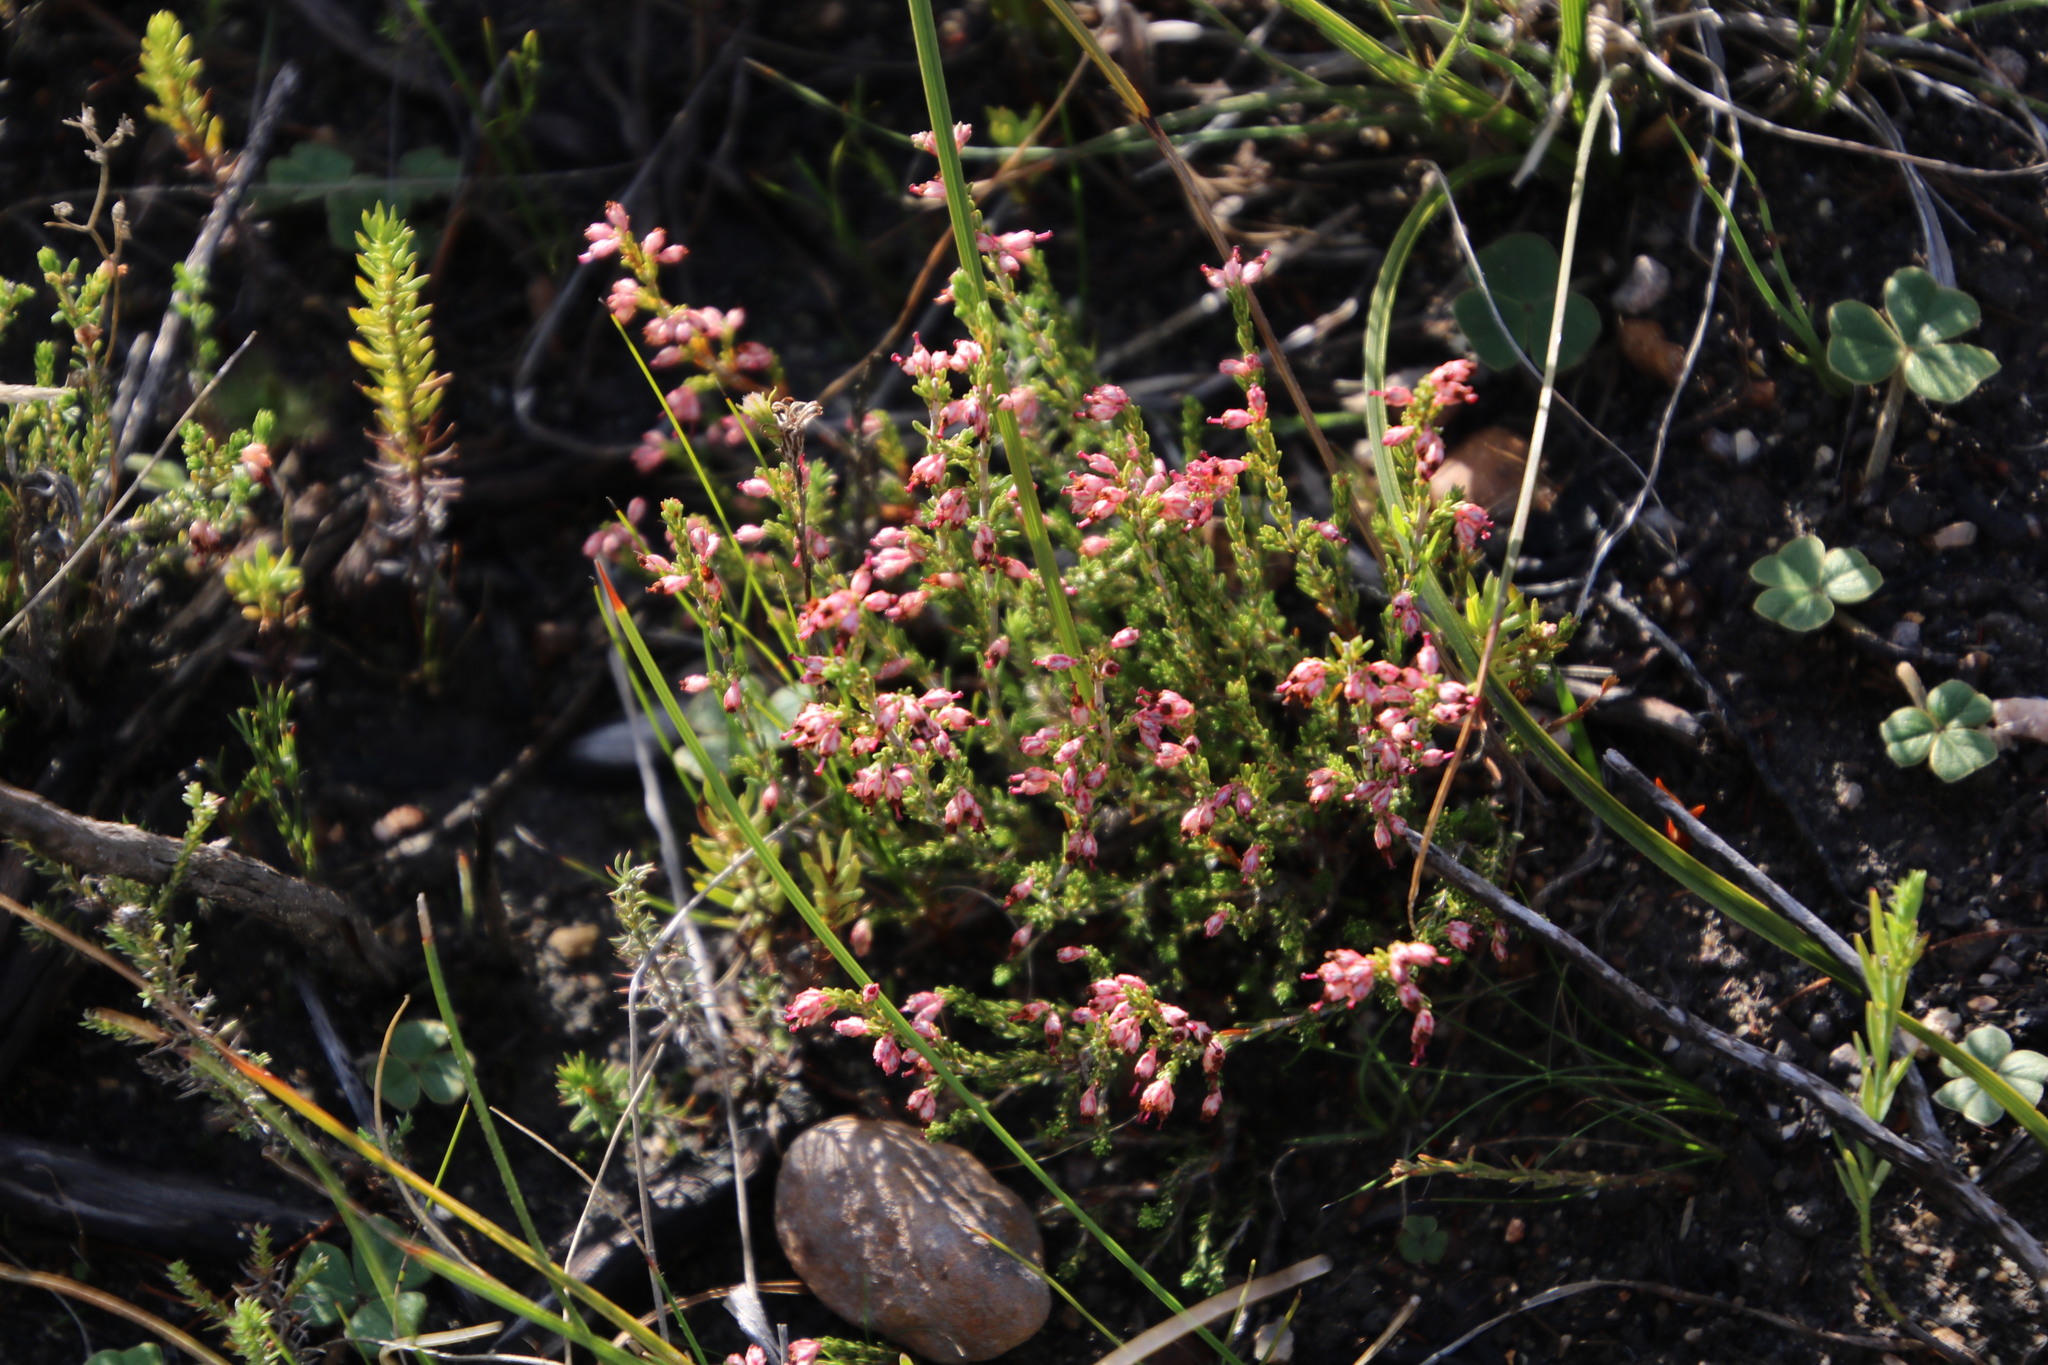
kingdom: Plantae
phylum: Tracheophyta
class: Magnoliopsida
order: Ericales
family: Ericaceae
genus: Erica
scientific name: Erica lasciva
